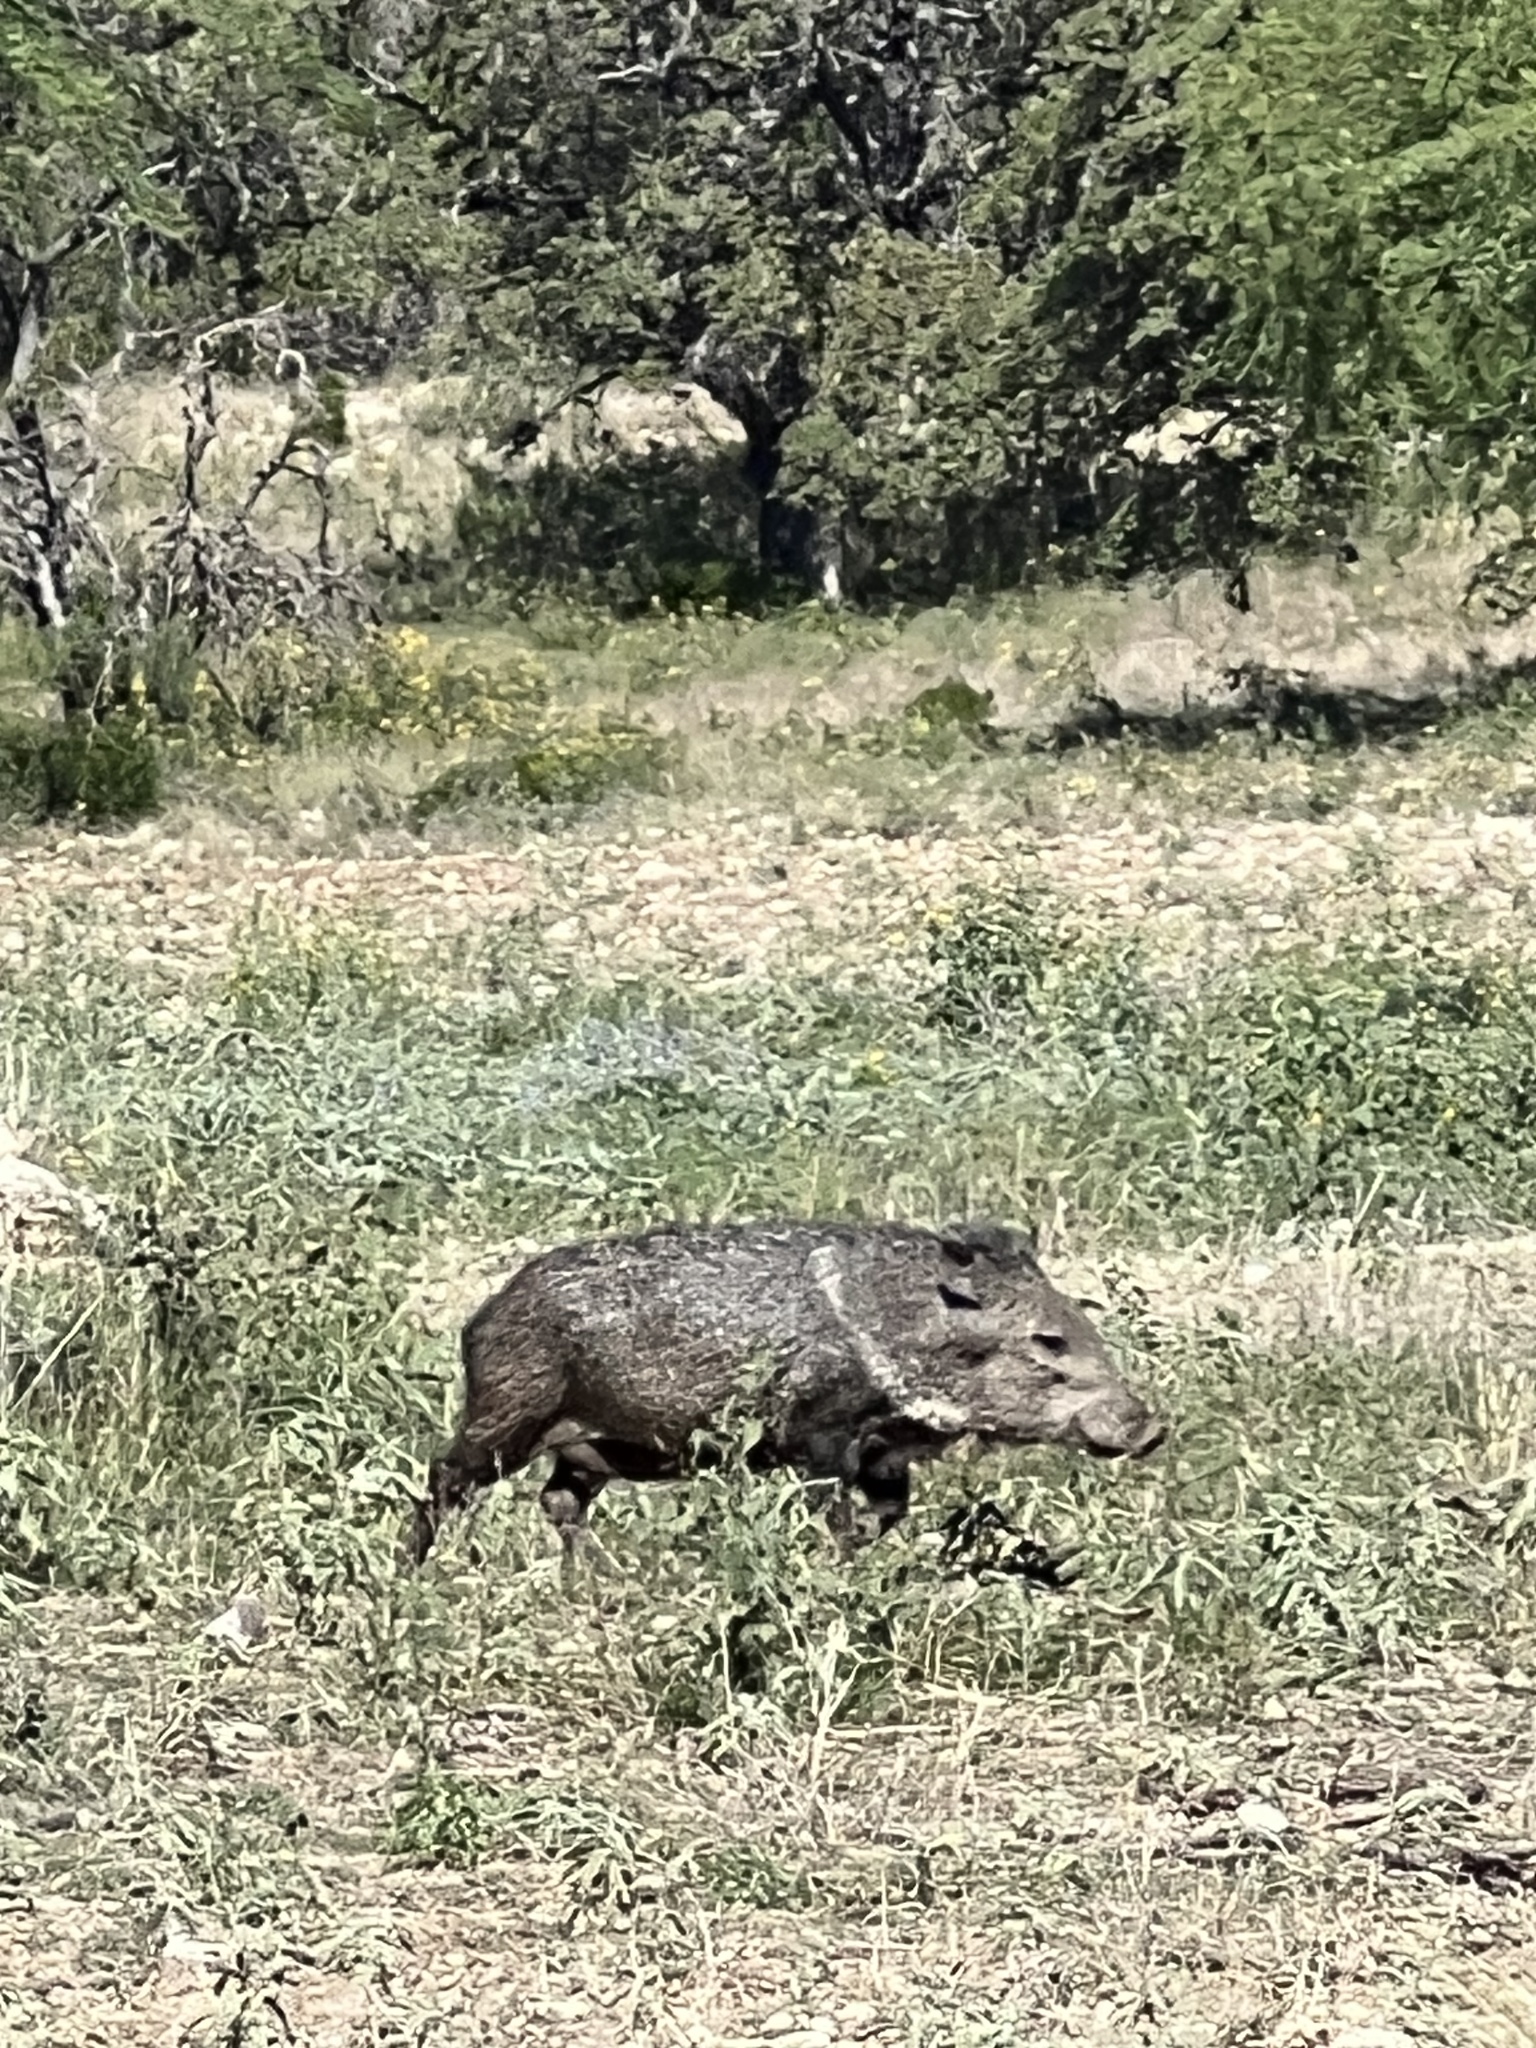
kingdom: Animalia
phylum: Chordata
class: Mammalia
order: Artiodactyla
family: Tayassuidae
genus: Pecari
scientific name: Pecari tajacu
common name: Collared peccary
